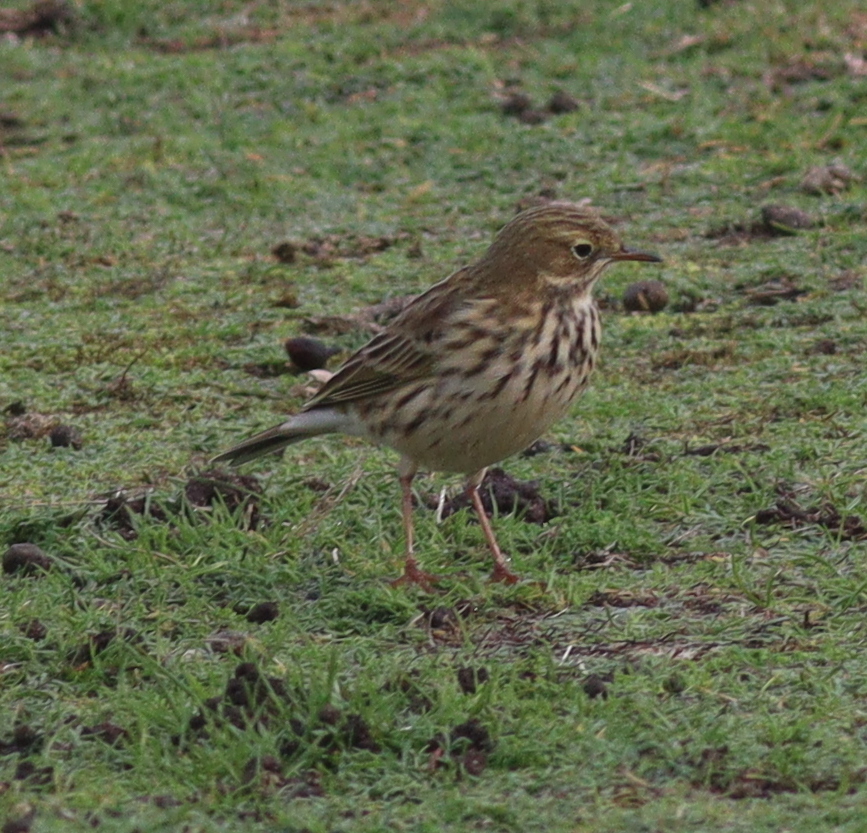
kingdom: Animalia
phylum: Chordata
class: Aves
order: Passeriformes
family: Motacillidae
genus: Anthus
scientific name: Anthus pratensis
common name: Meadow pipit
